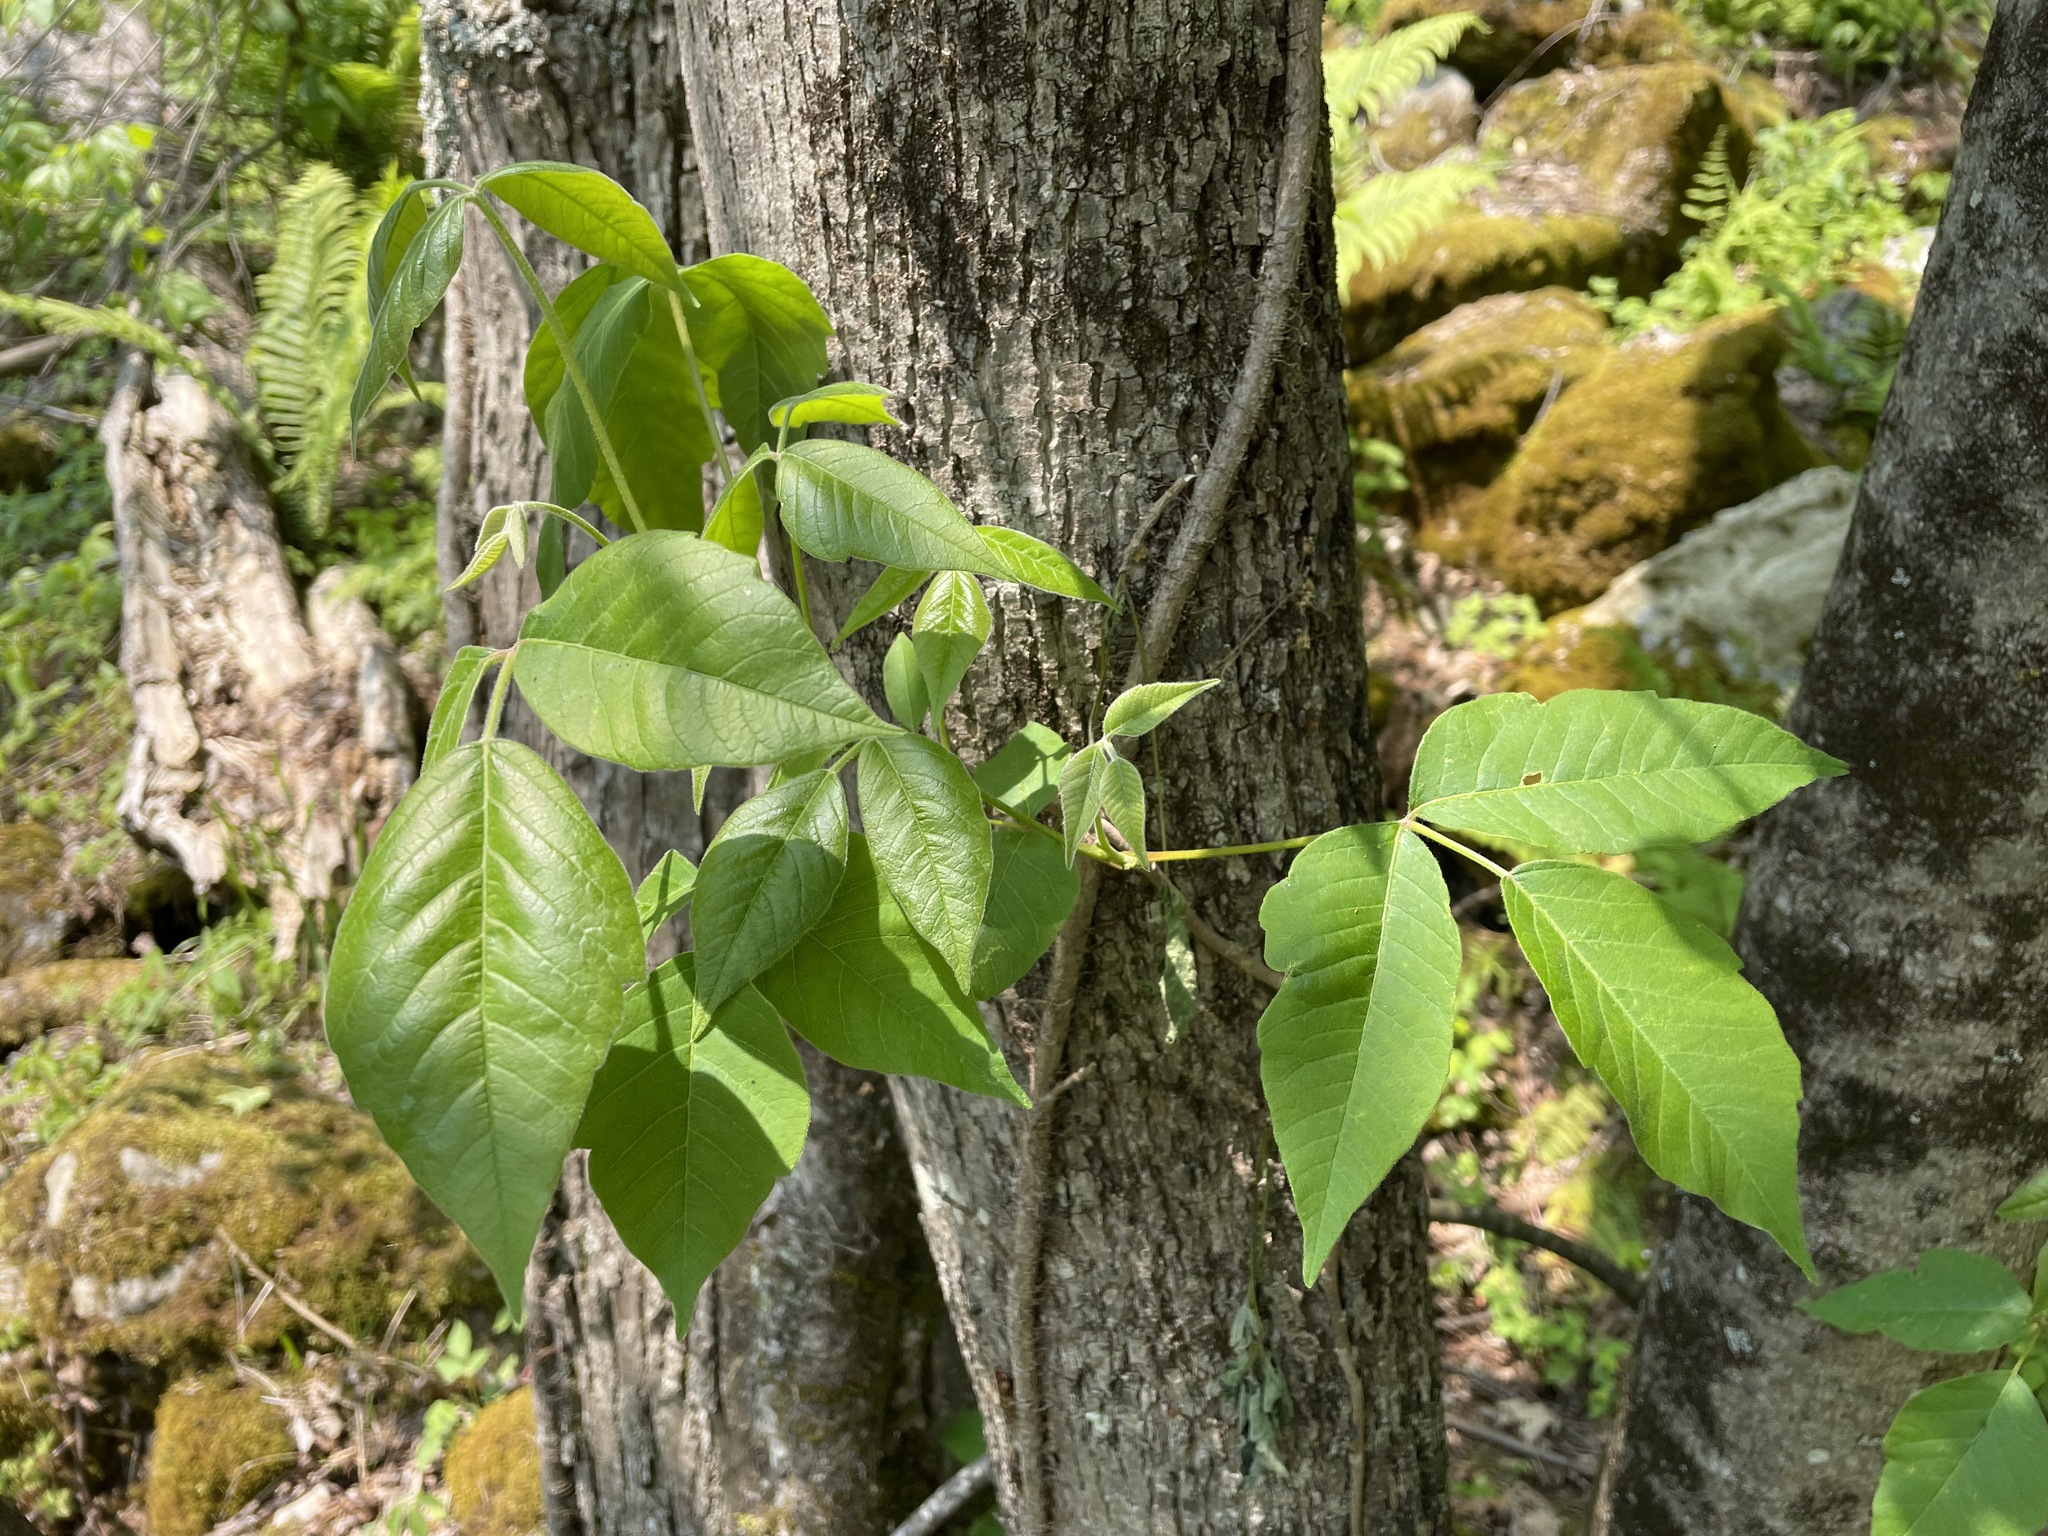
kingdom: Plantae
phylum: Tracheophyta
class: Magnoliopsida
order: Sapindales
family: Anacardiaceae
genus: Toxicodendron
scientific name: Toxicodendron radicans
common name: Poison ivy
